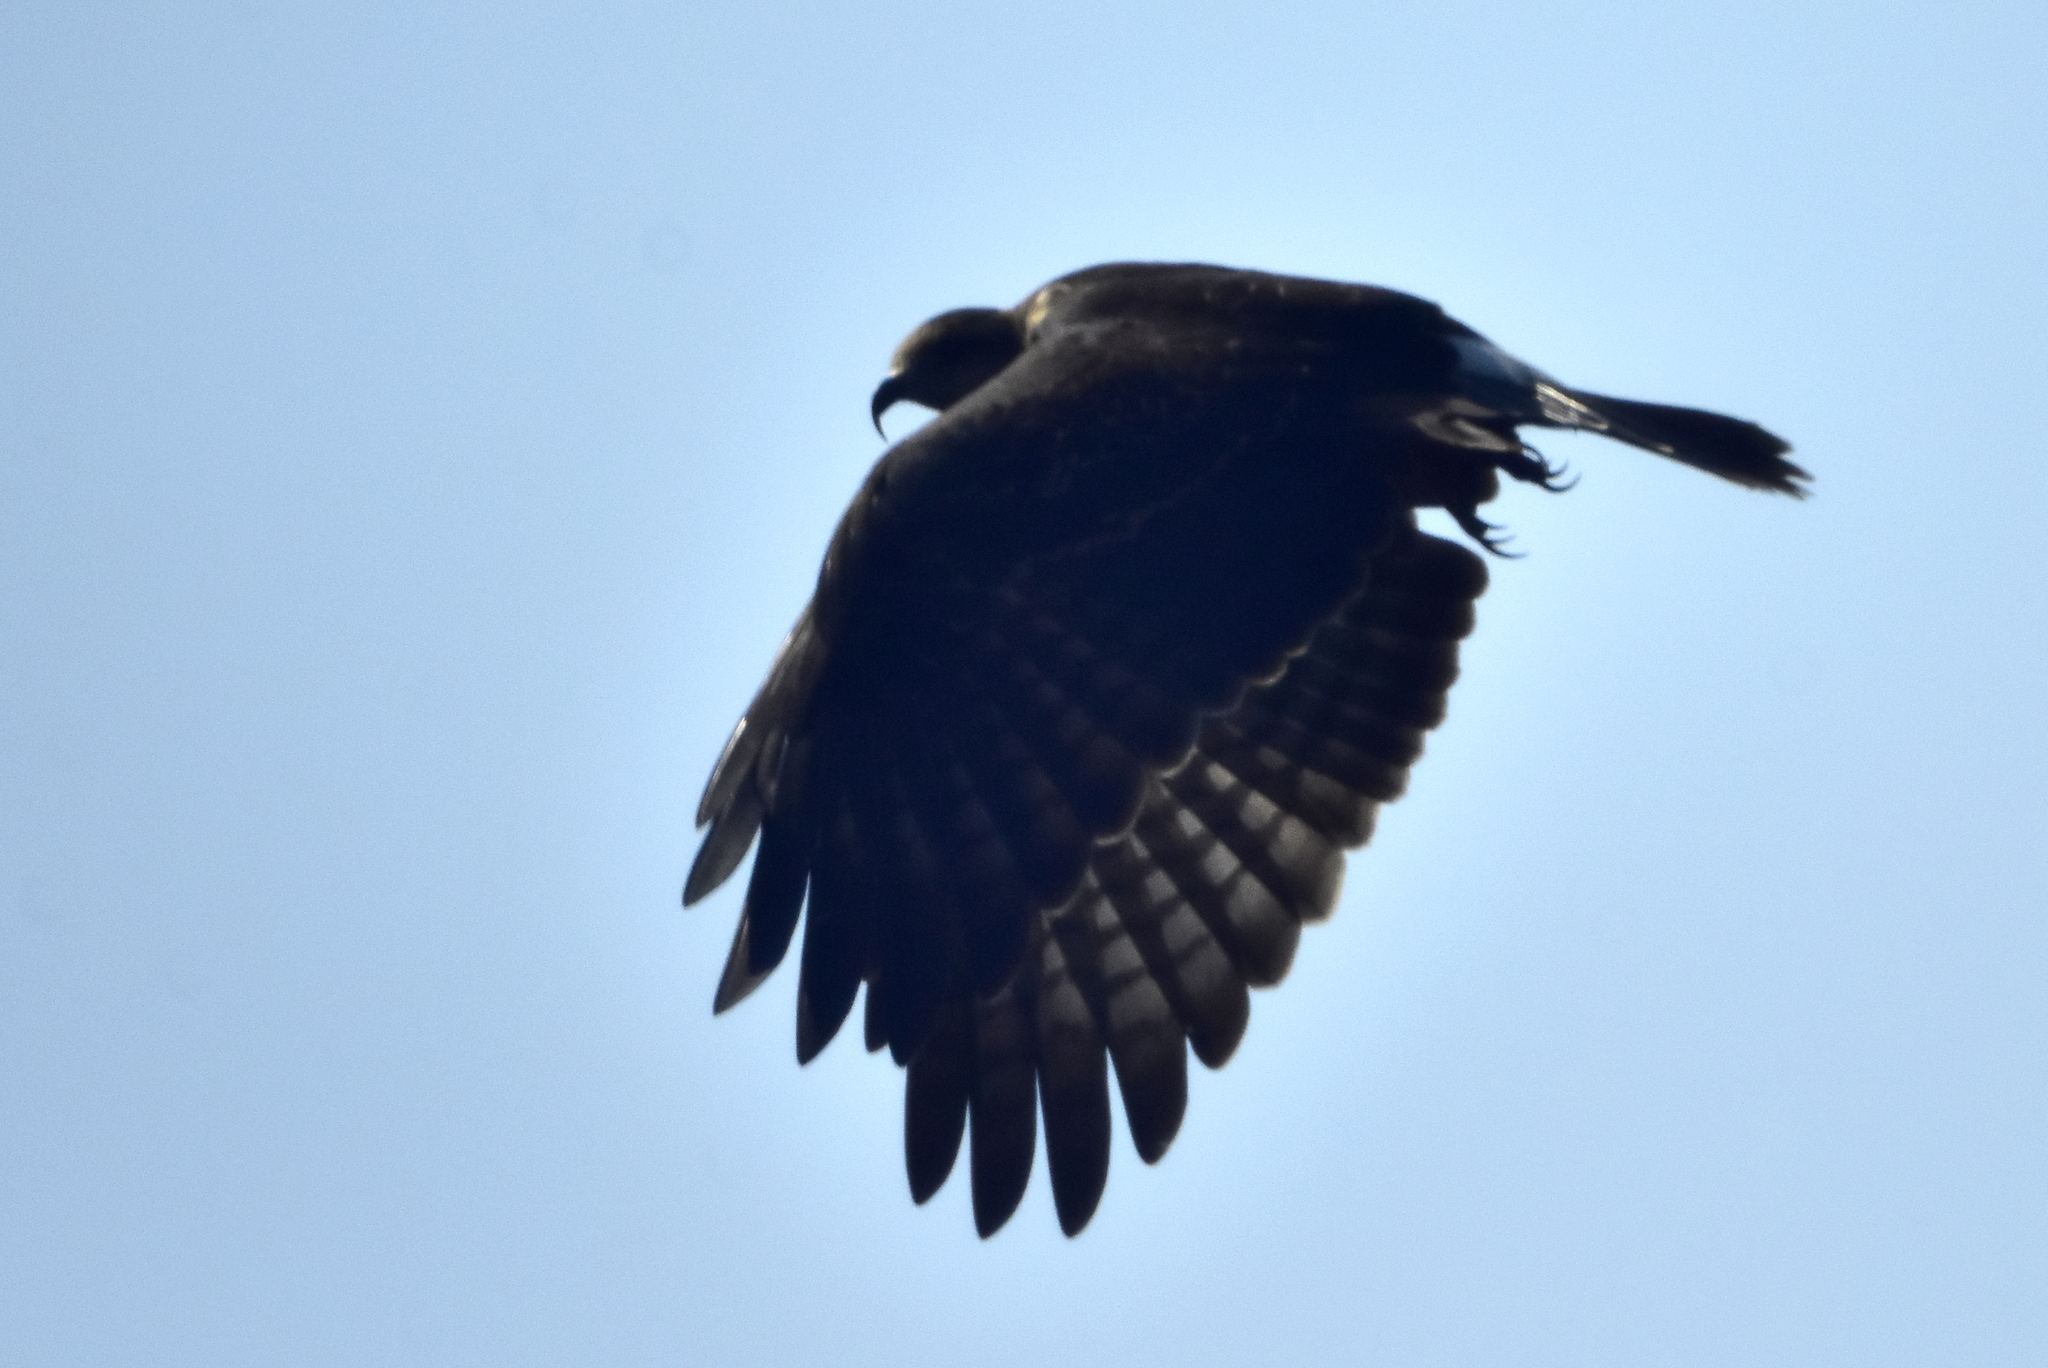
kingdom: Animalia
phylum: Chordata
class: Aves
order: Accipitriformes
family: Accipitridae
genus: Rostrhamus
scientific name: Rostrhamus sociabilis
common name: Snail kite
